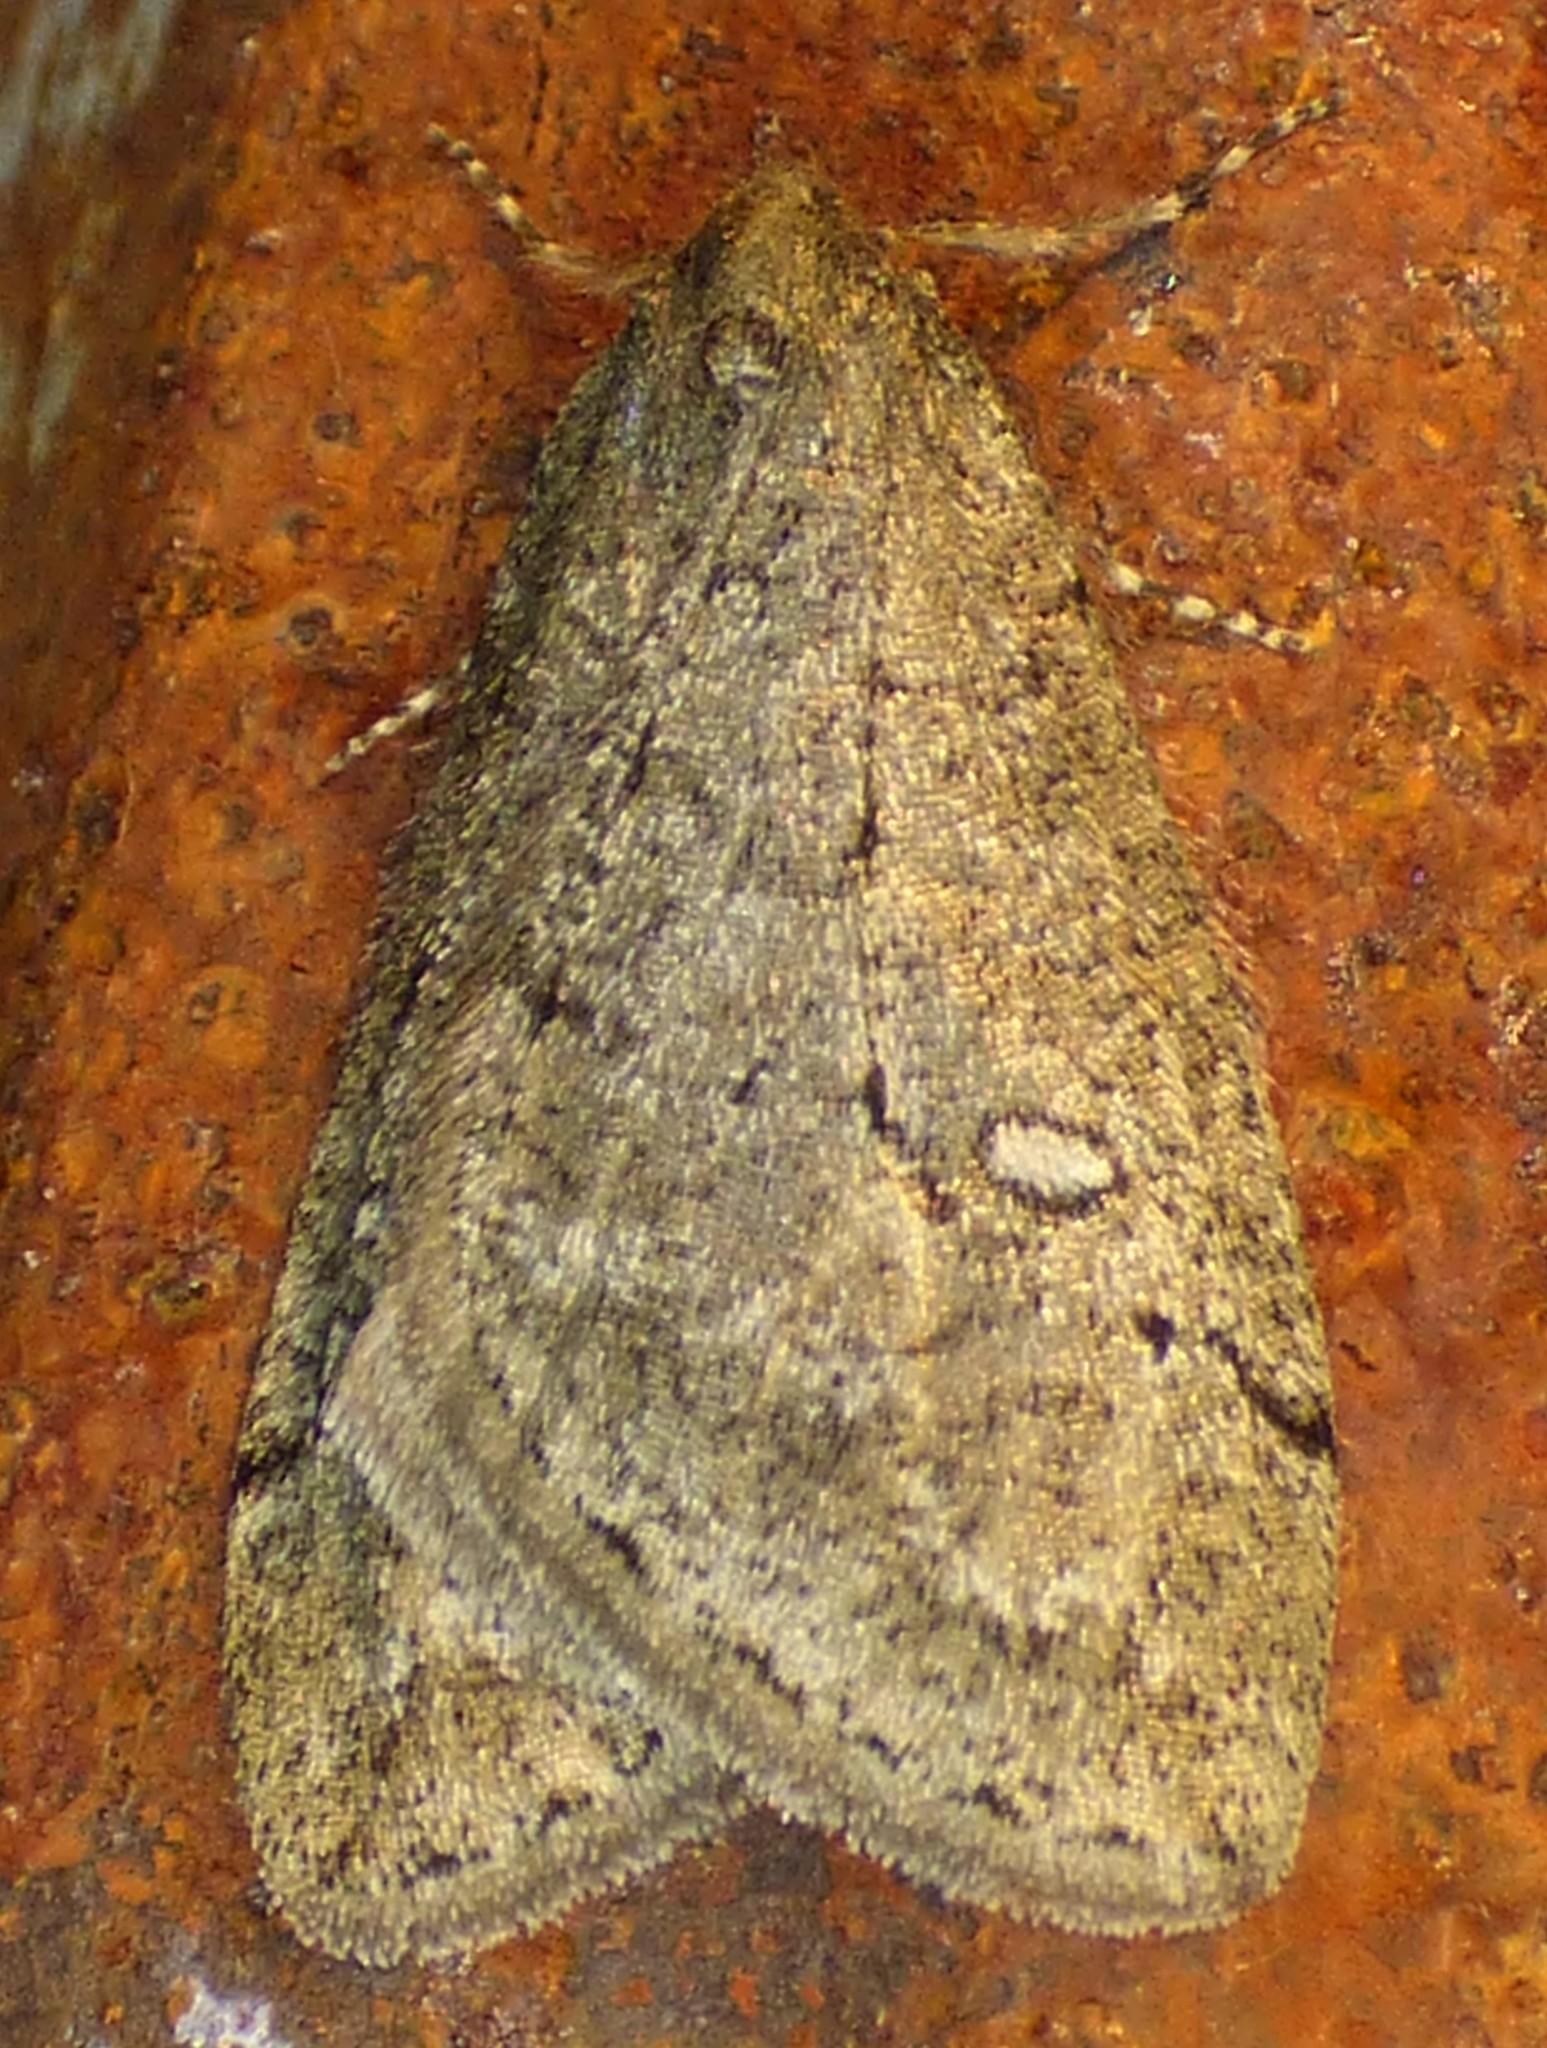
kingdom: Animalia
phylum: Arthropoda
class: Insecta
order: Lepidoptera
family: Geometridae
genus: Paleacrita
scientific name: Paleacrita merriccata
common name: White-spotted canker worm
